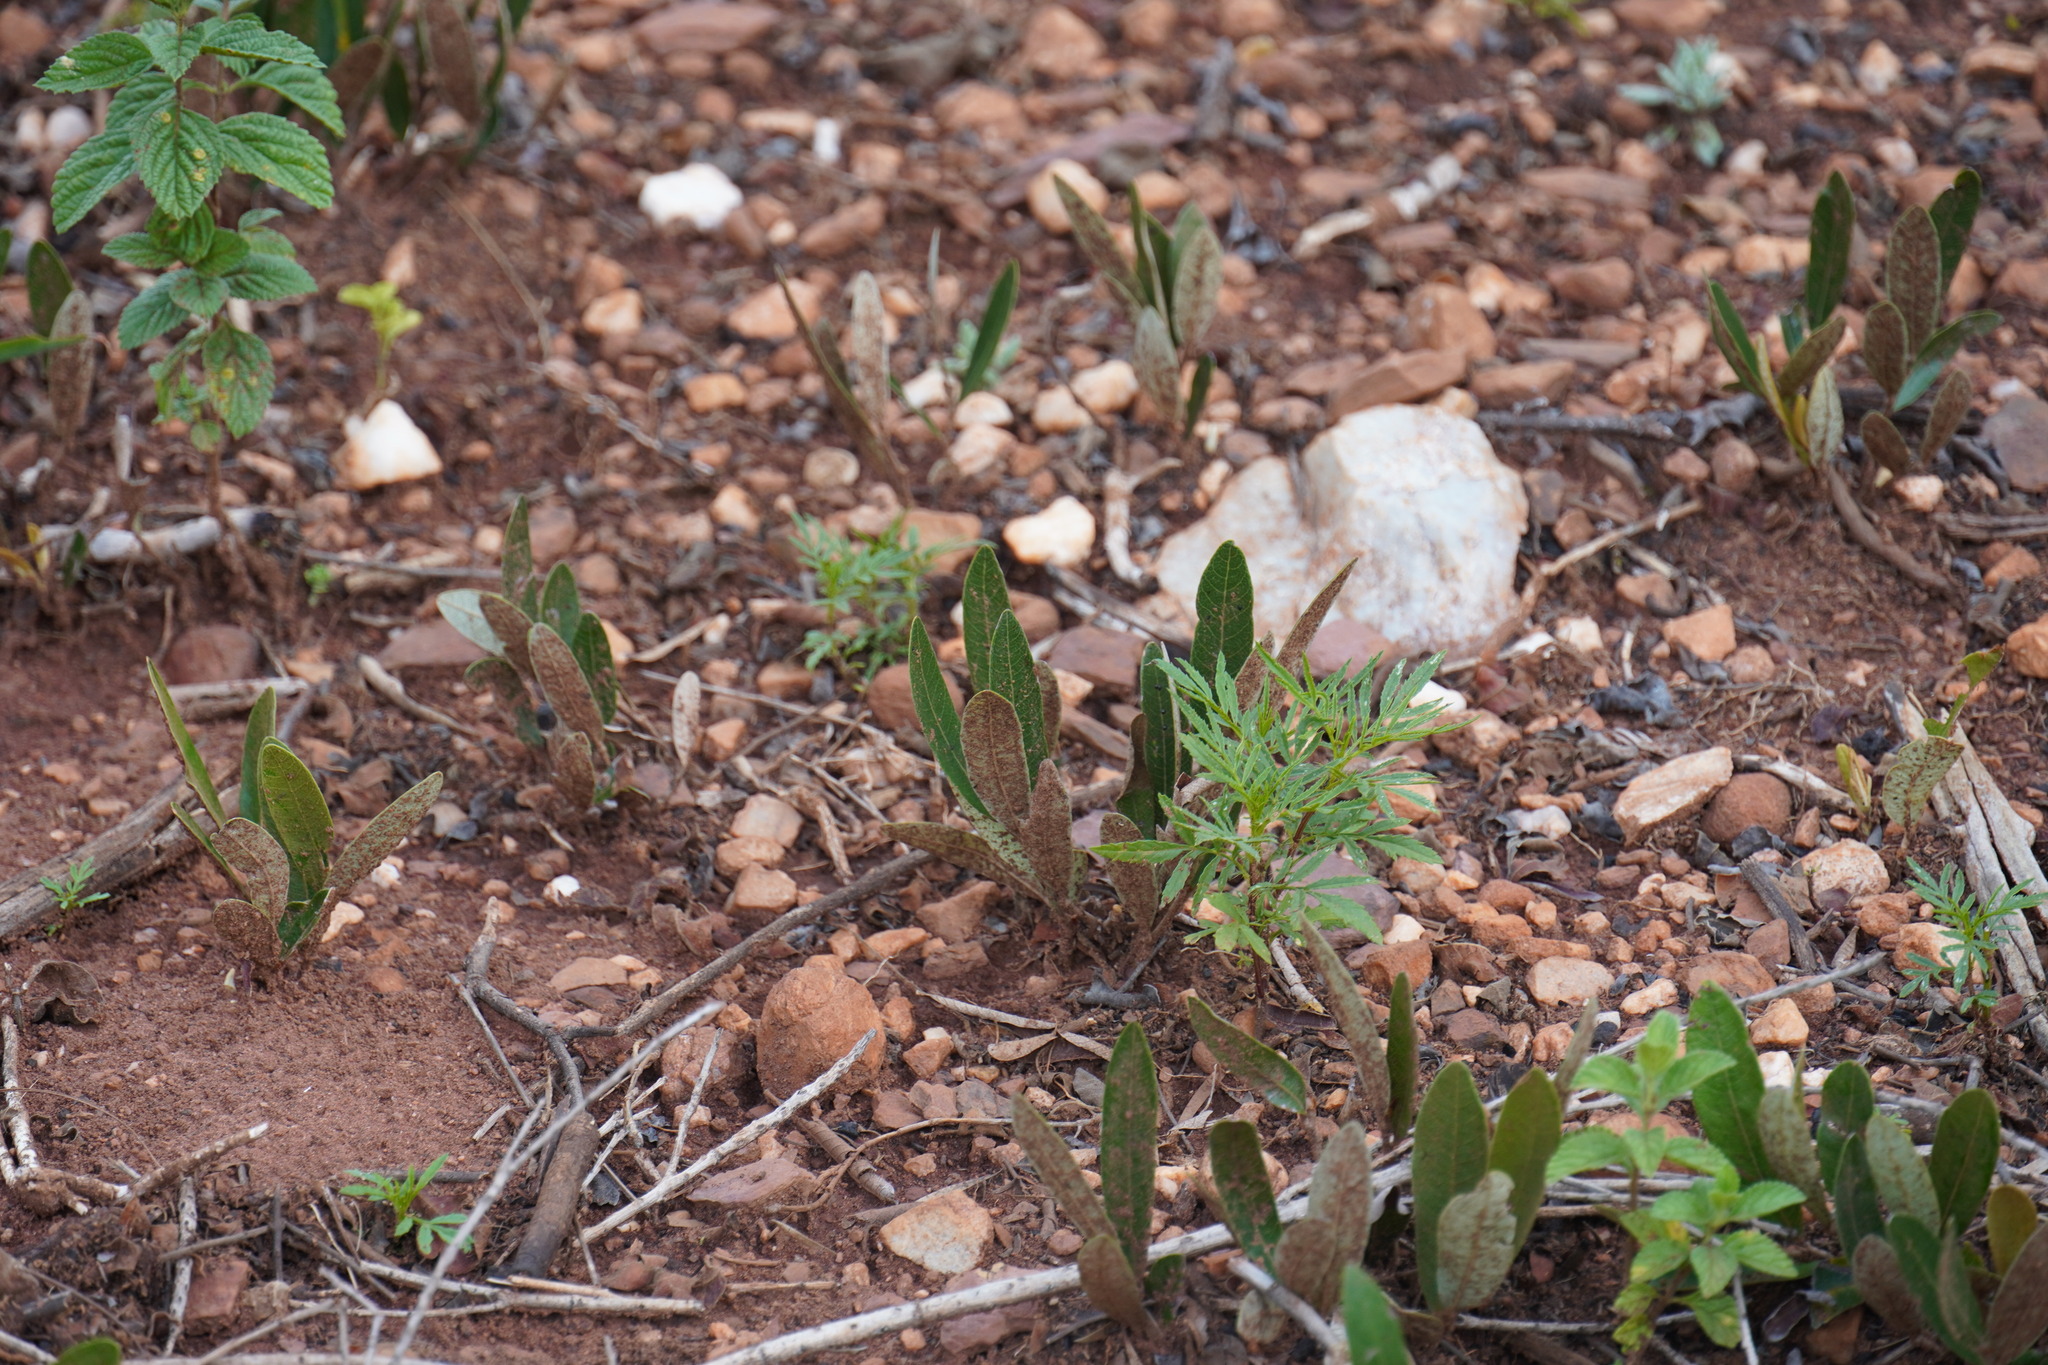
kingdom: Plantae
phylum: Tracheophyta
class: Magnoliopsida
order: Malpighiales
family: Chrysobalanaceae
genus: Parinari
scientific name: Parinari capensis
